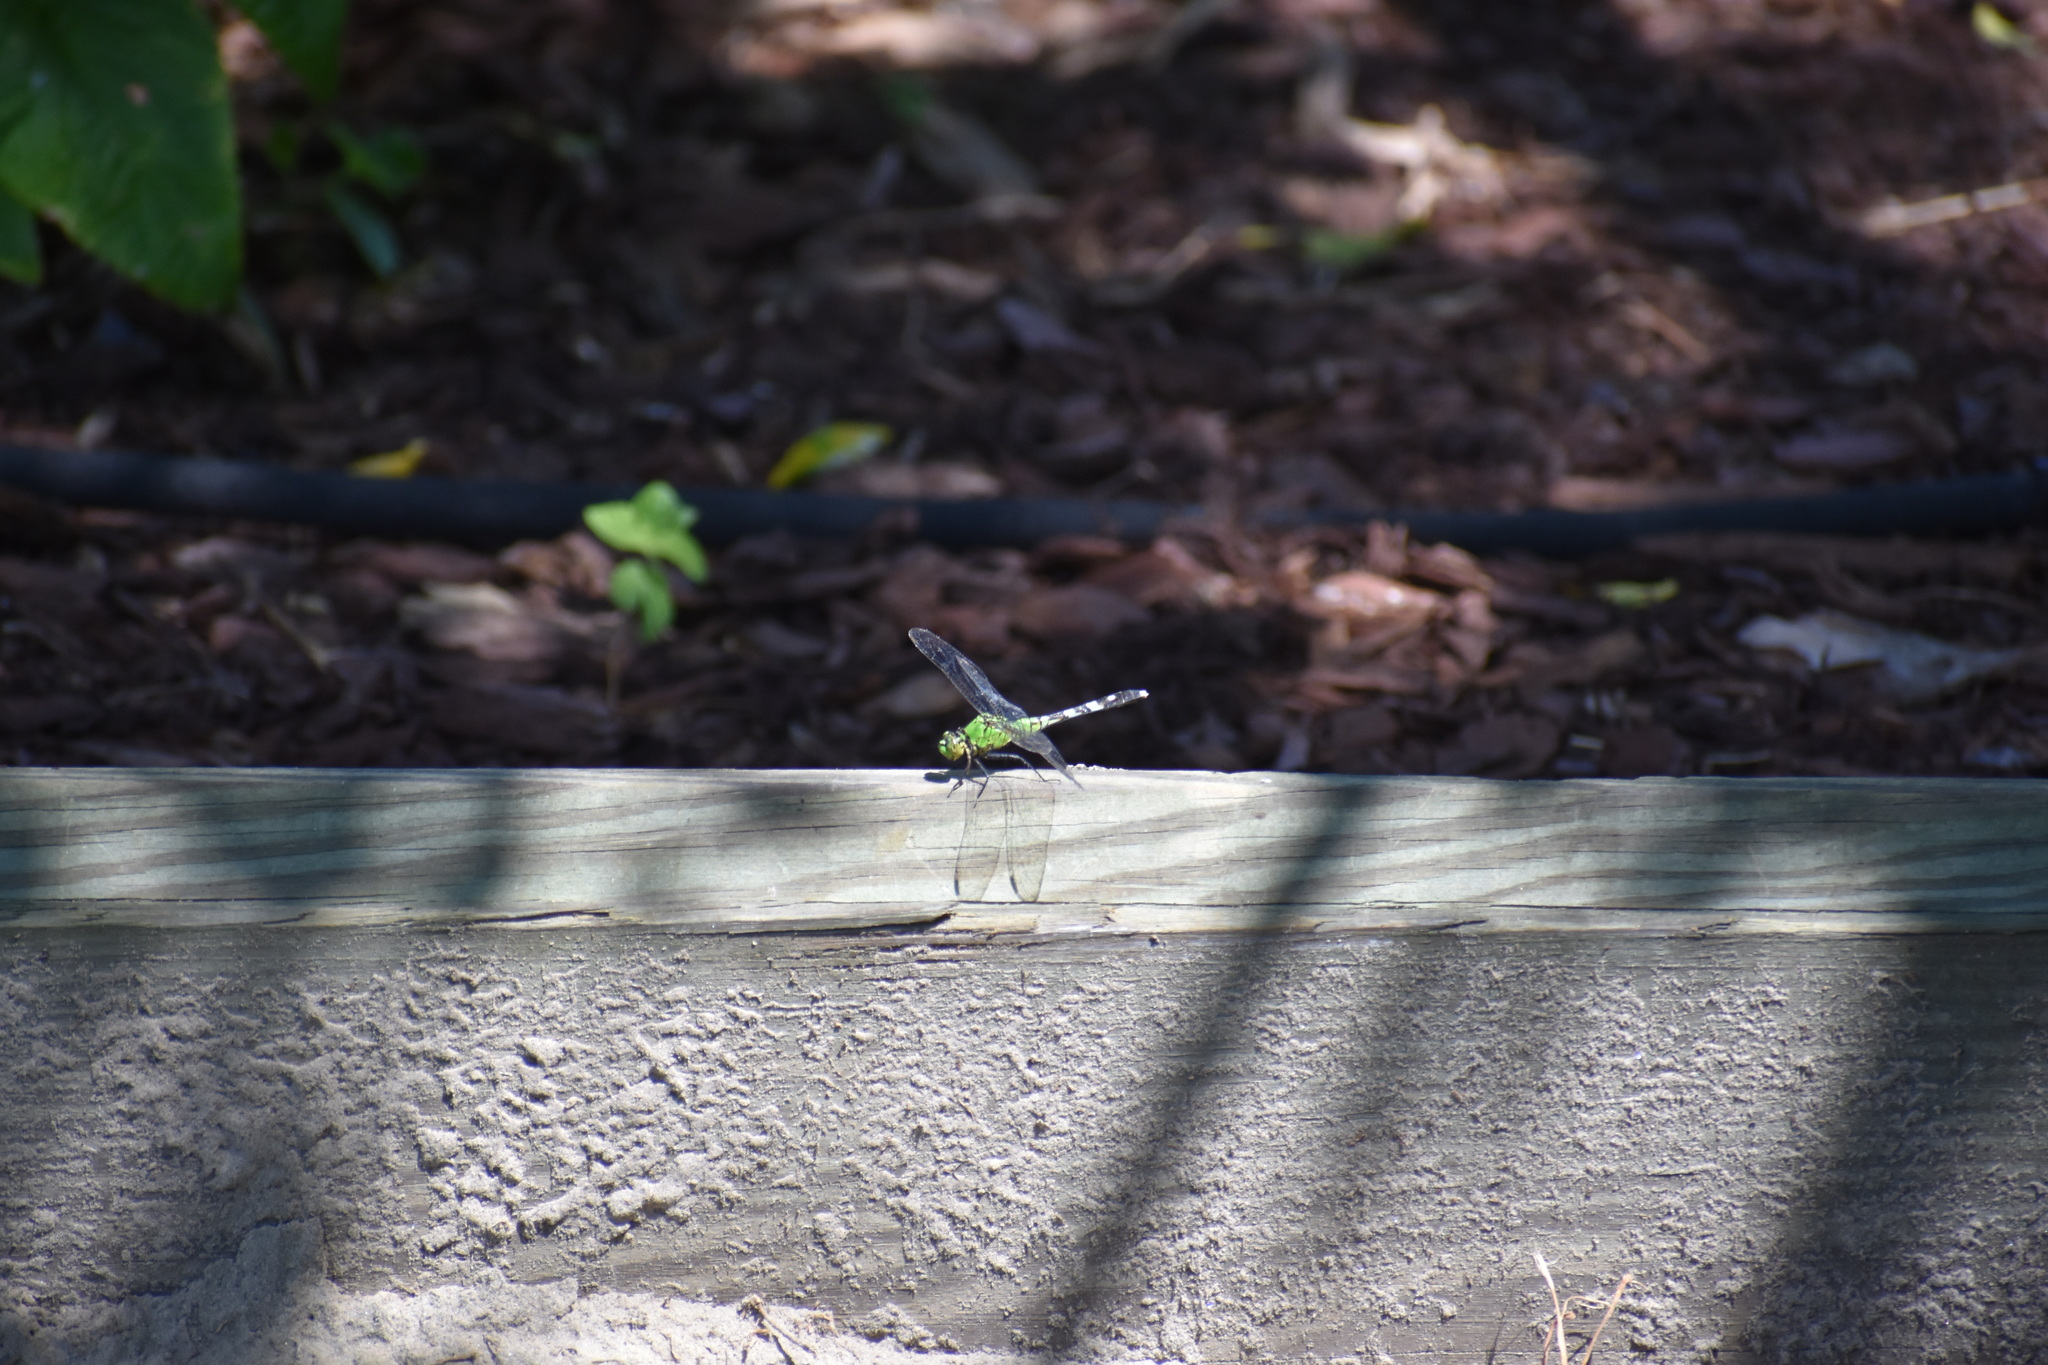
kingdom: Animalia
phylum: Arthropoda
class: Insecta
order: Odonata
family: Libellulidae
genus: Erythemis
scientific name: Erythemis simplicicollis
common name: Eastern pondhawk
